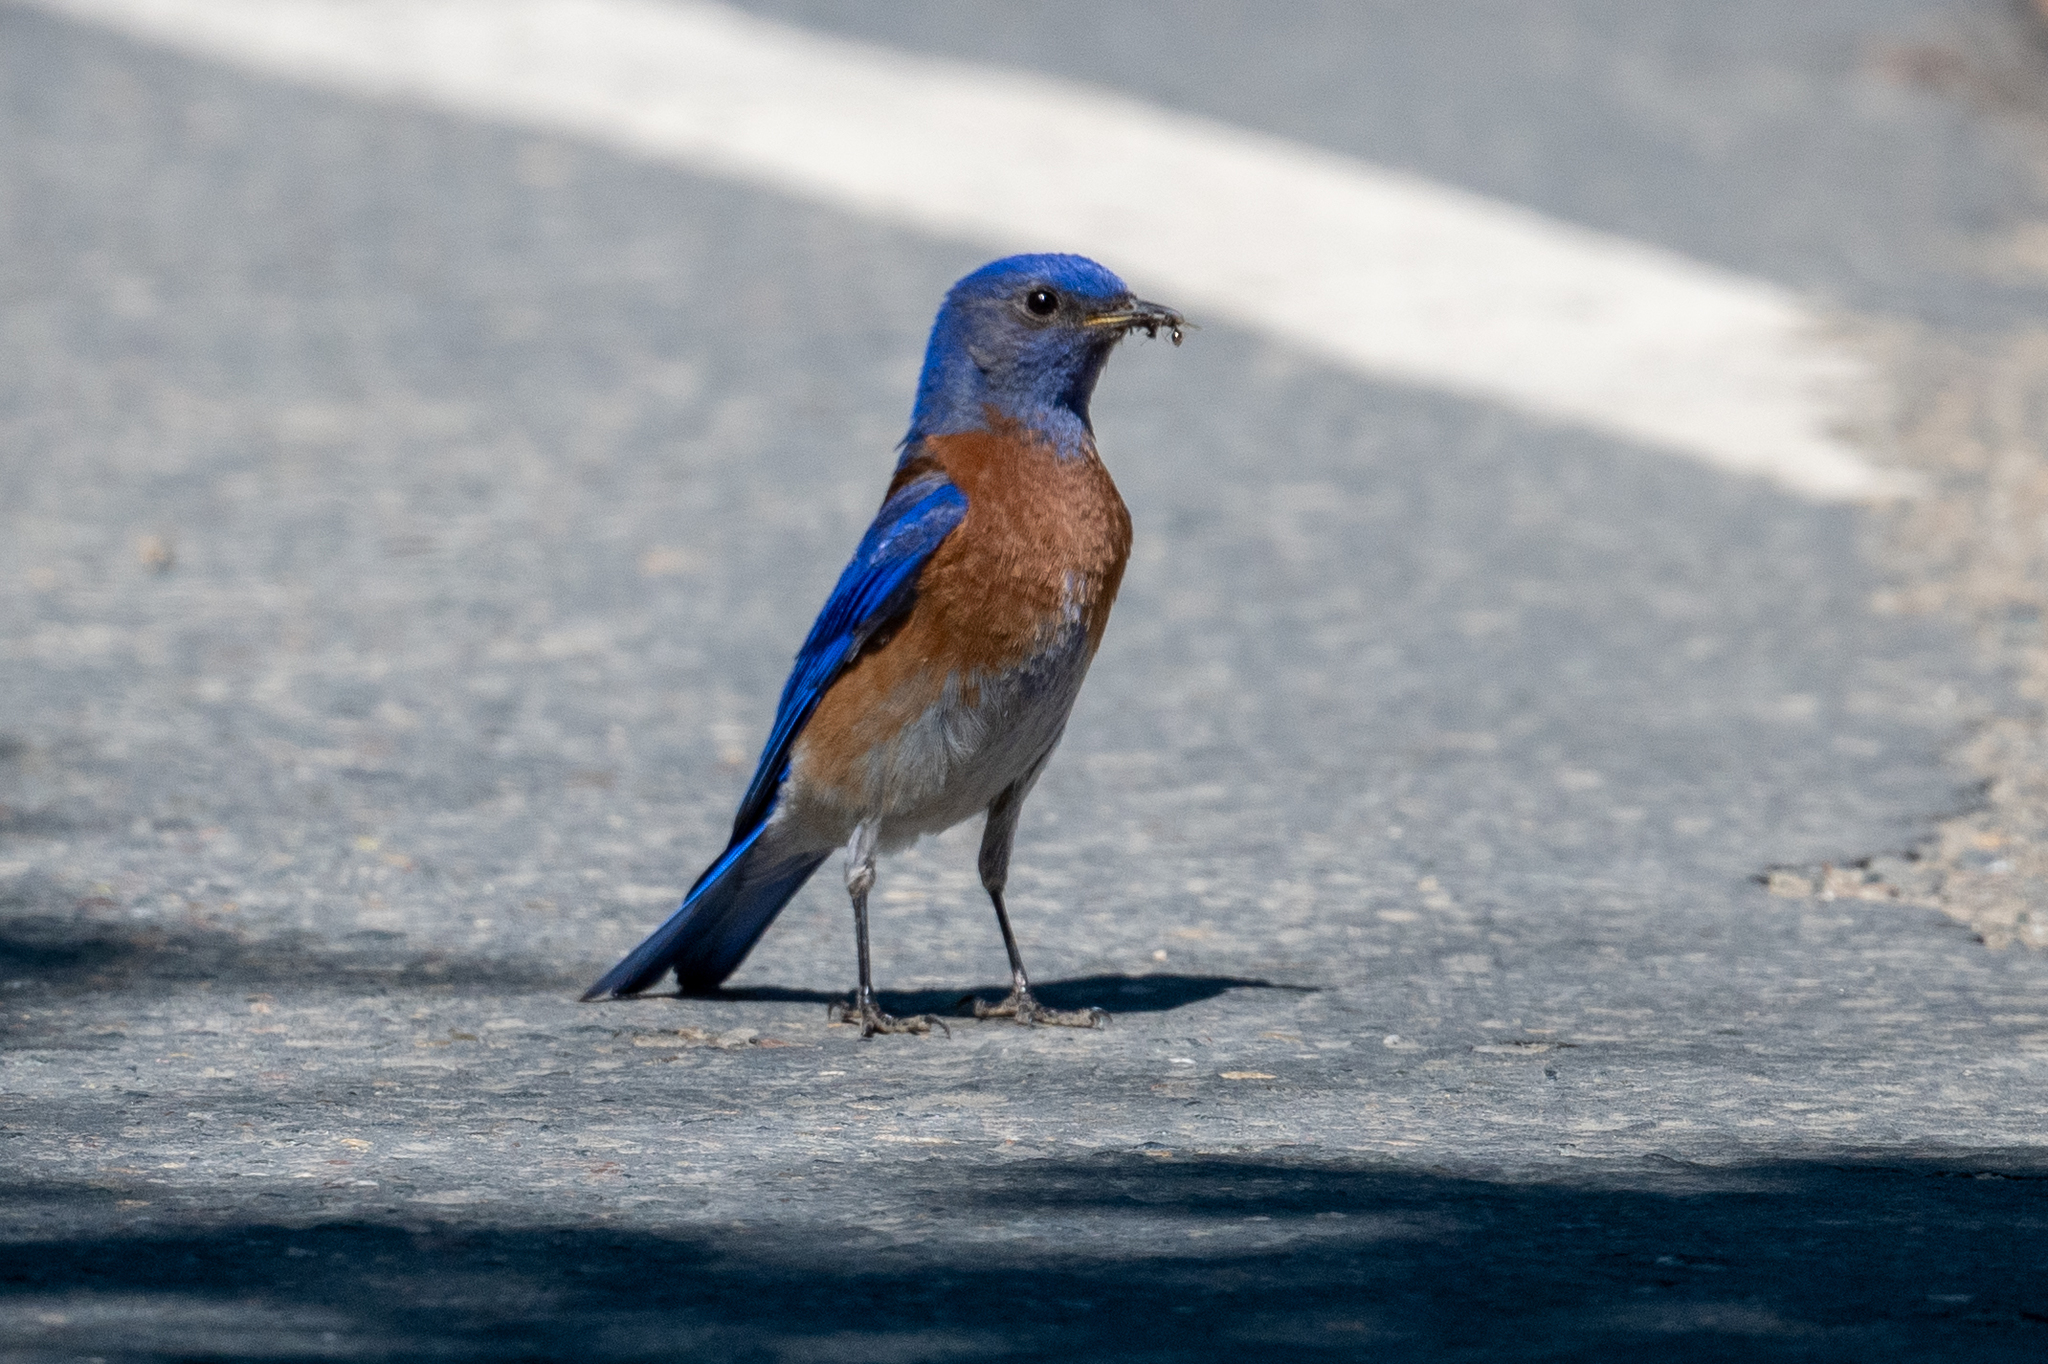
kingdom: Animalia
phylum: Chordata
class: Aves
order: Passeriformes
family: Turdidae
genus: Sialia
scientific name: Sialia mexicana
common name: Western bluebird
